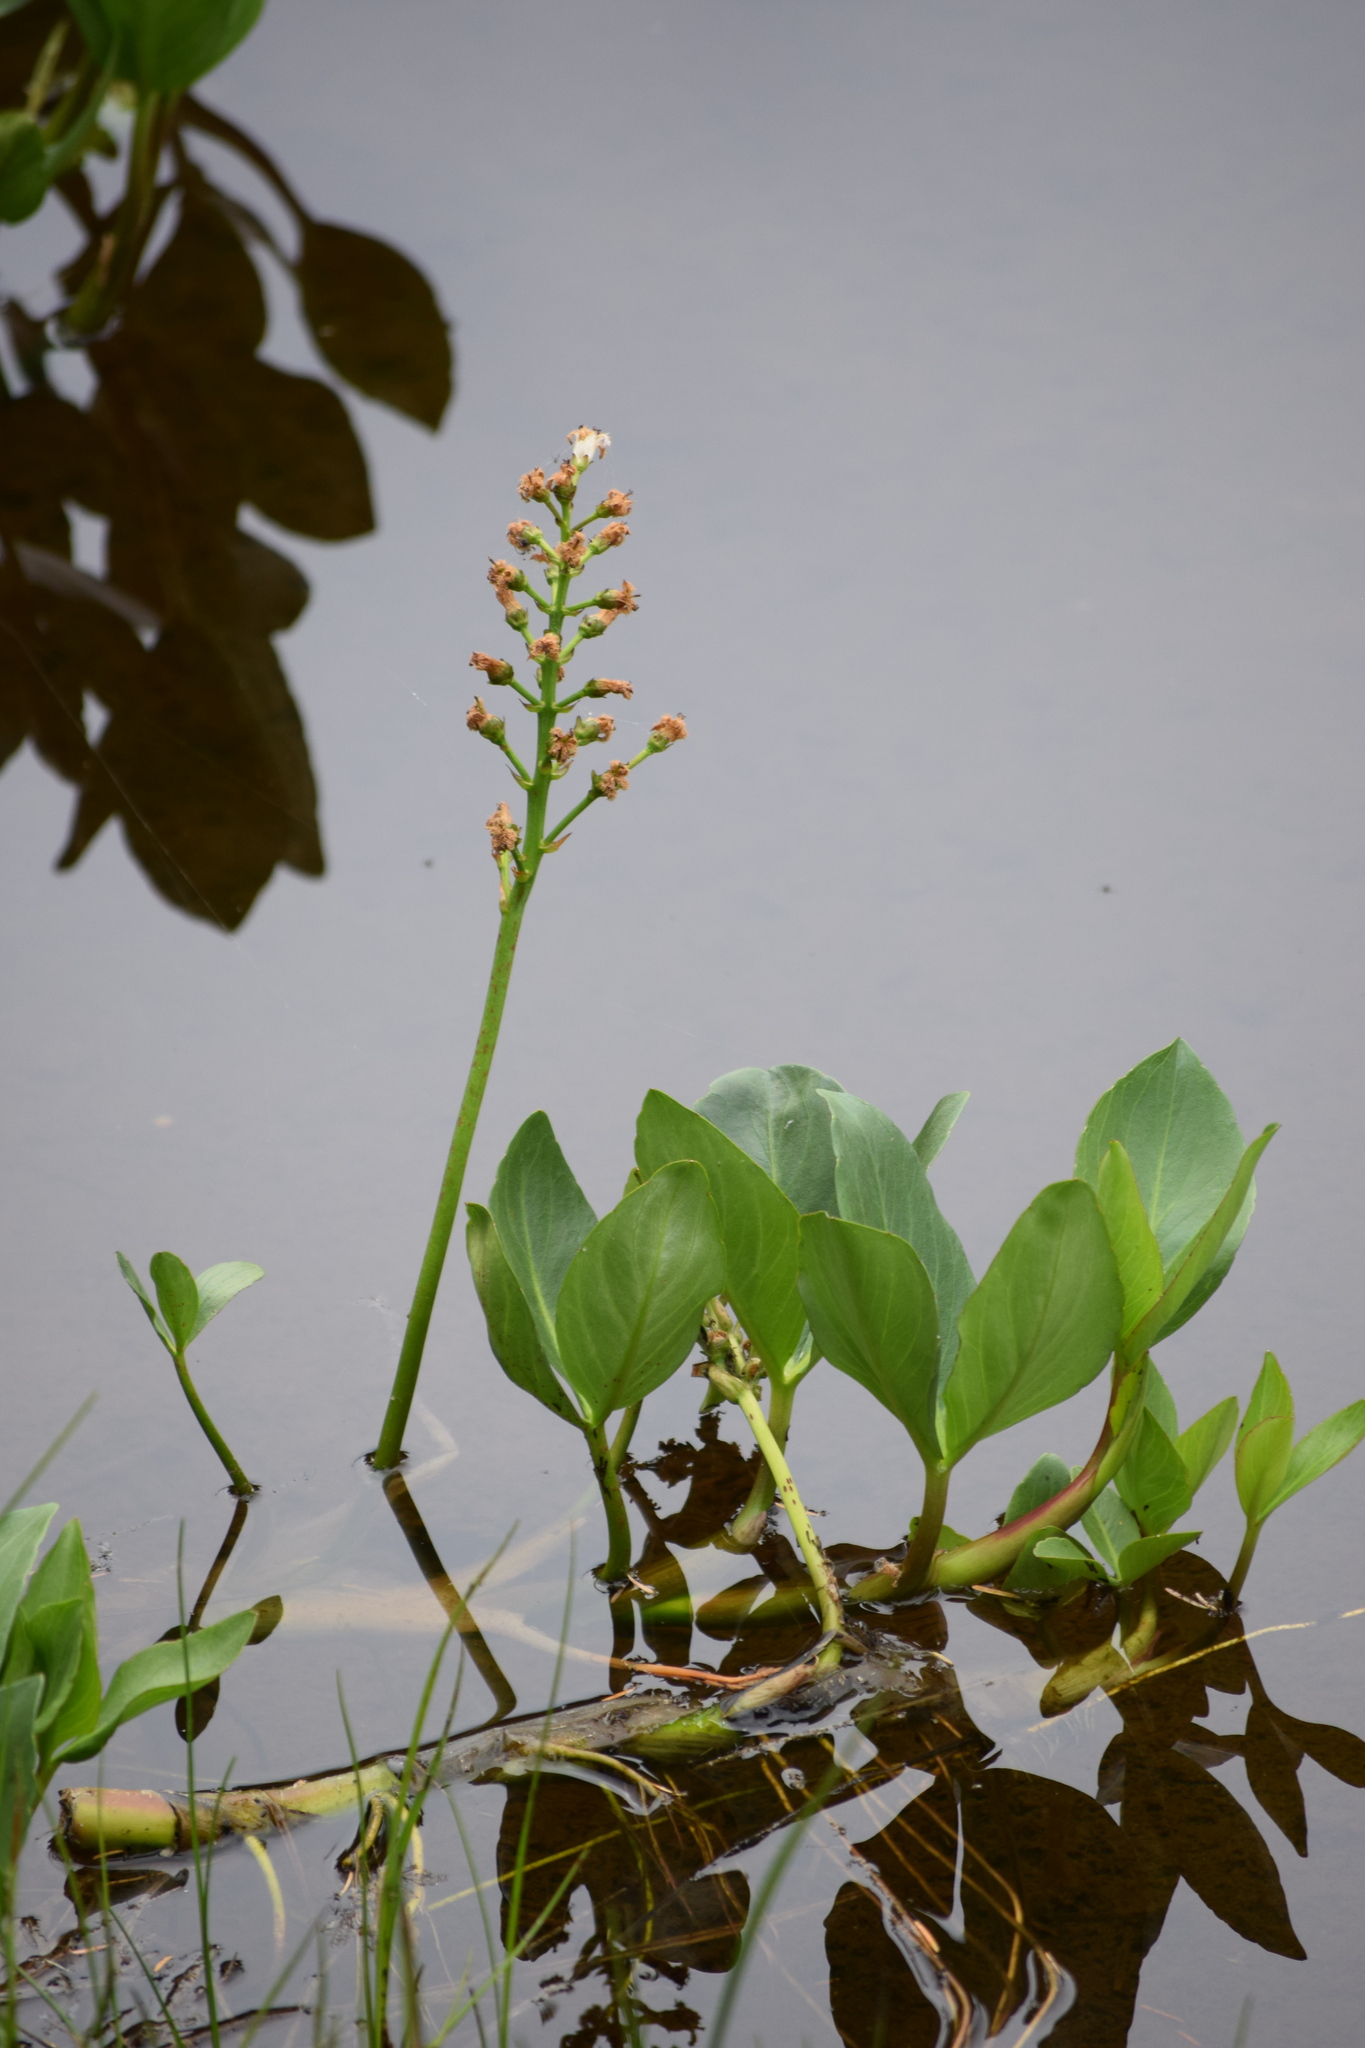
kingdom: Plantae
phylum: Tracheophyta
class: Magnoliopsida
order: Asterales
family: Menyanthaceae
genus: Menyanthes
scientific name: Menyanthes trifoliata
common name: Bogbean
